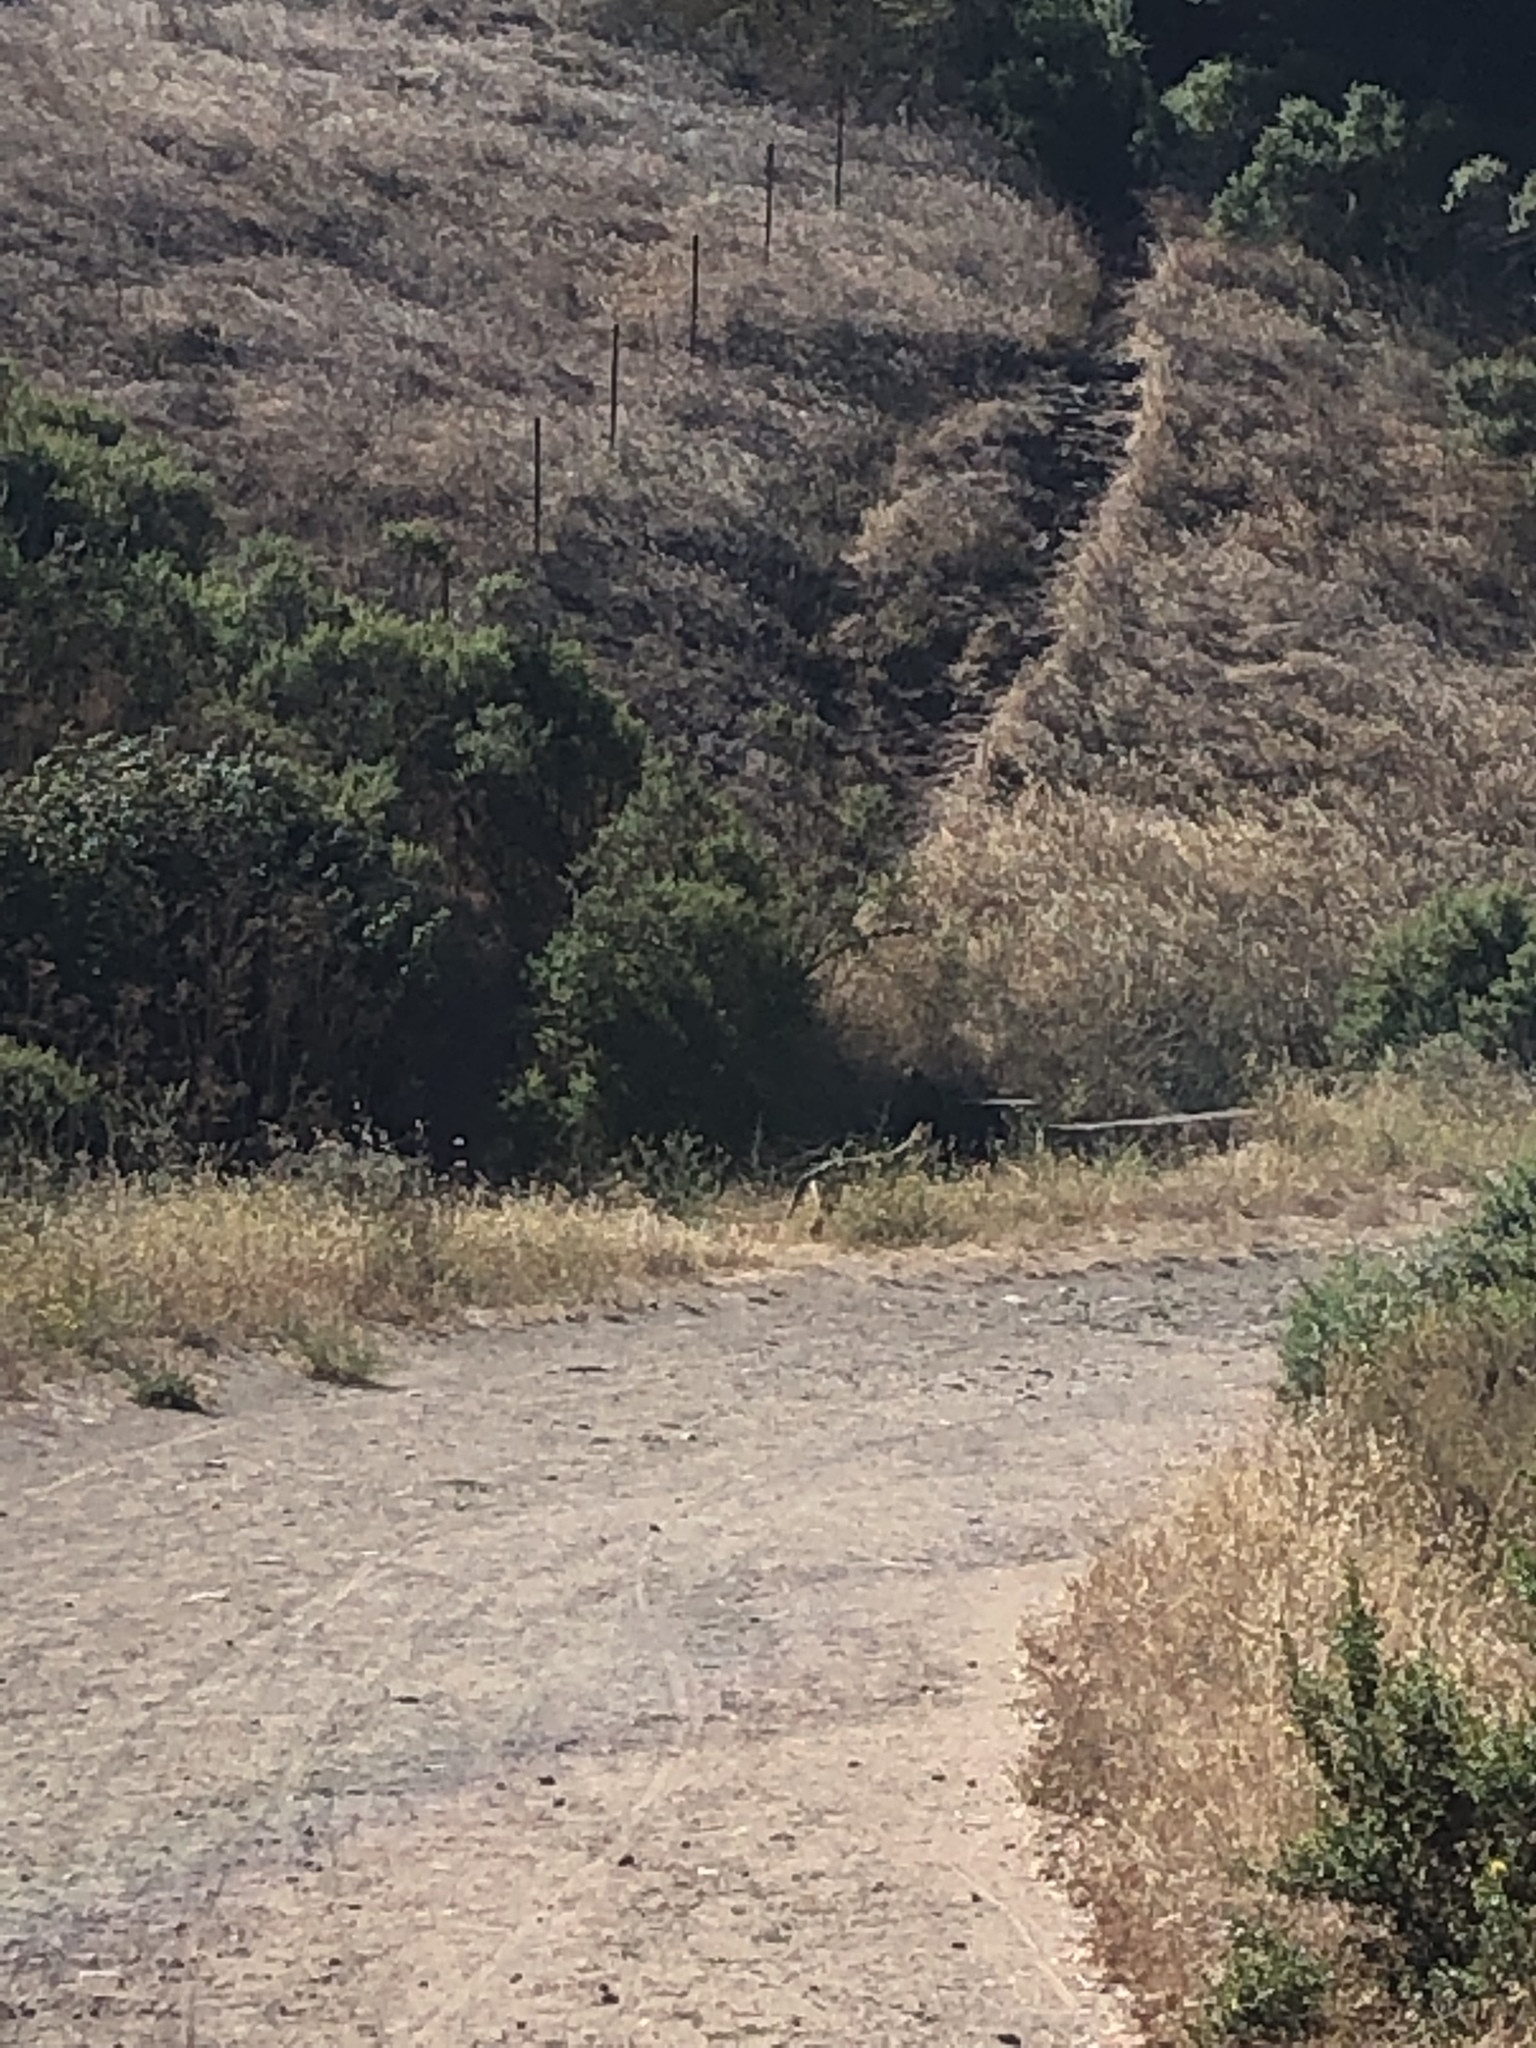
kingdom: Animalia
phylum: Chordata
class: Mammalia
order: Carnivora
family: Canidae
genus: Canis
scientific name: Canis latrans
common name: Coyote
